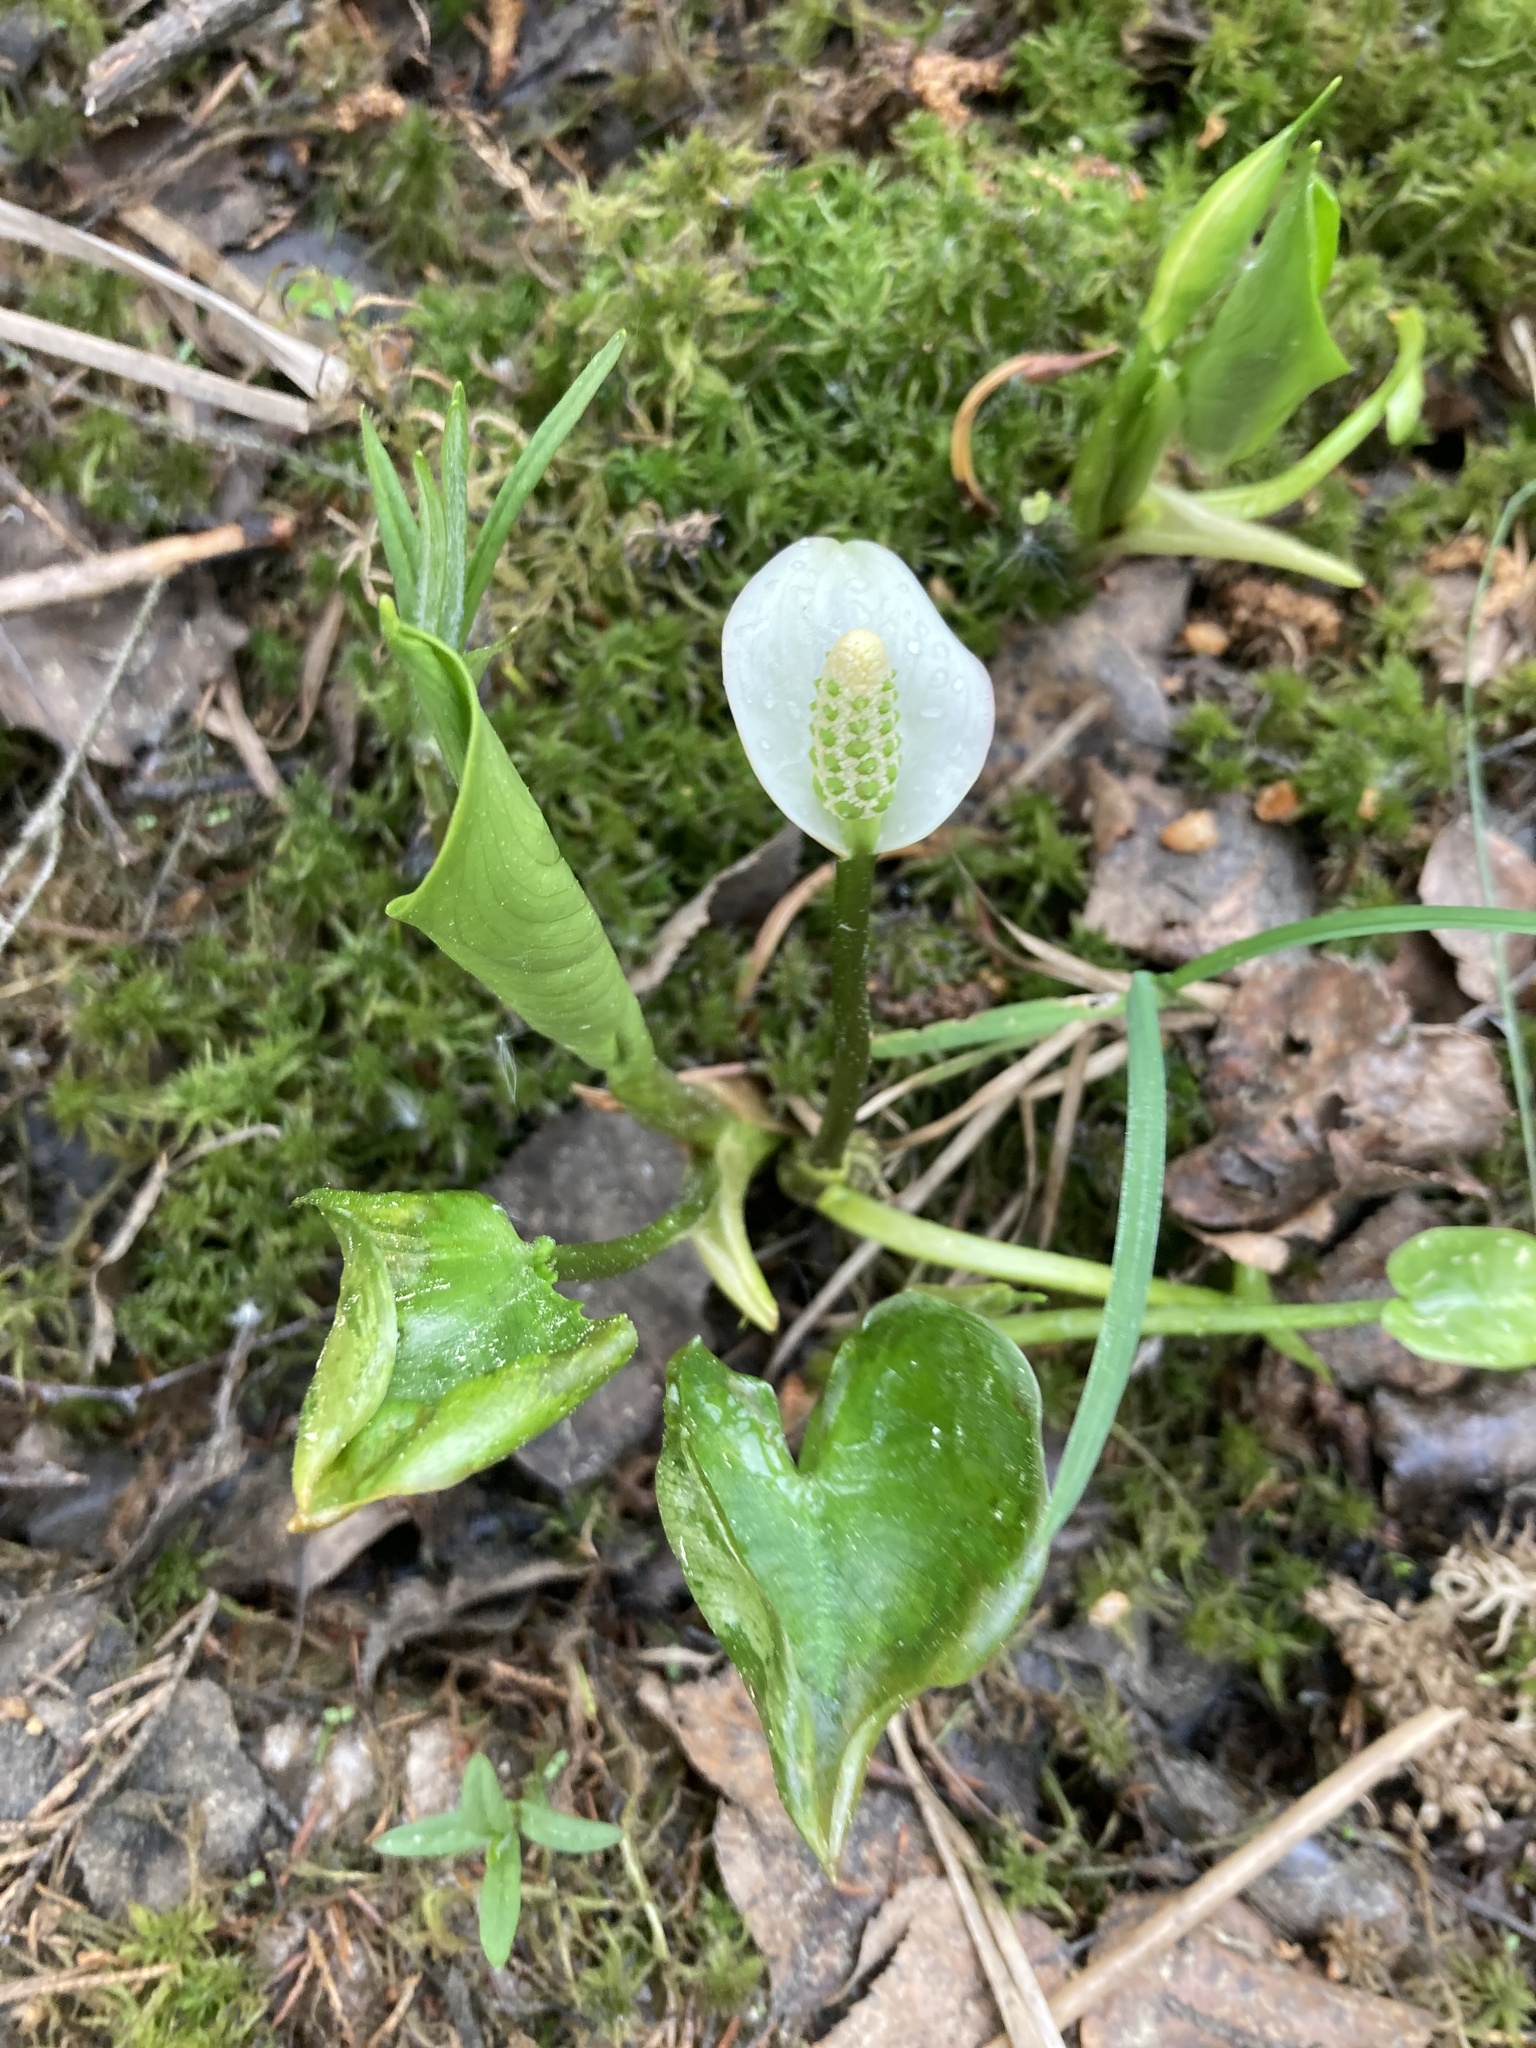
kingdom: Plantae
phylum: Tracheophyta
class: Liliopsida
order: Alismatales
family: Araceae
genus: Calla
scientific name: Calla palustris
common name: Bog arum
